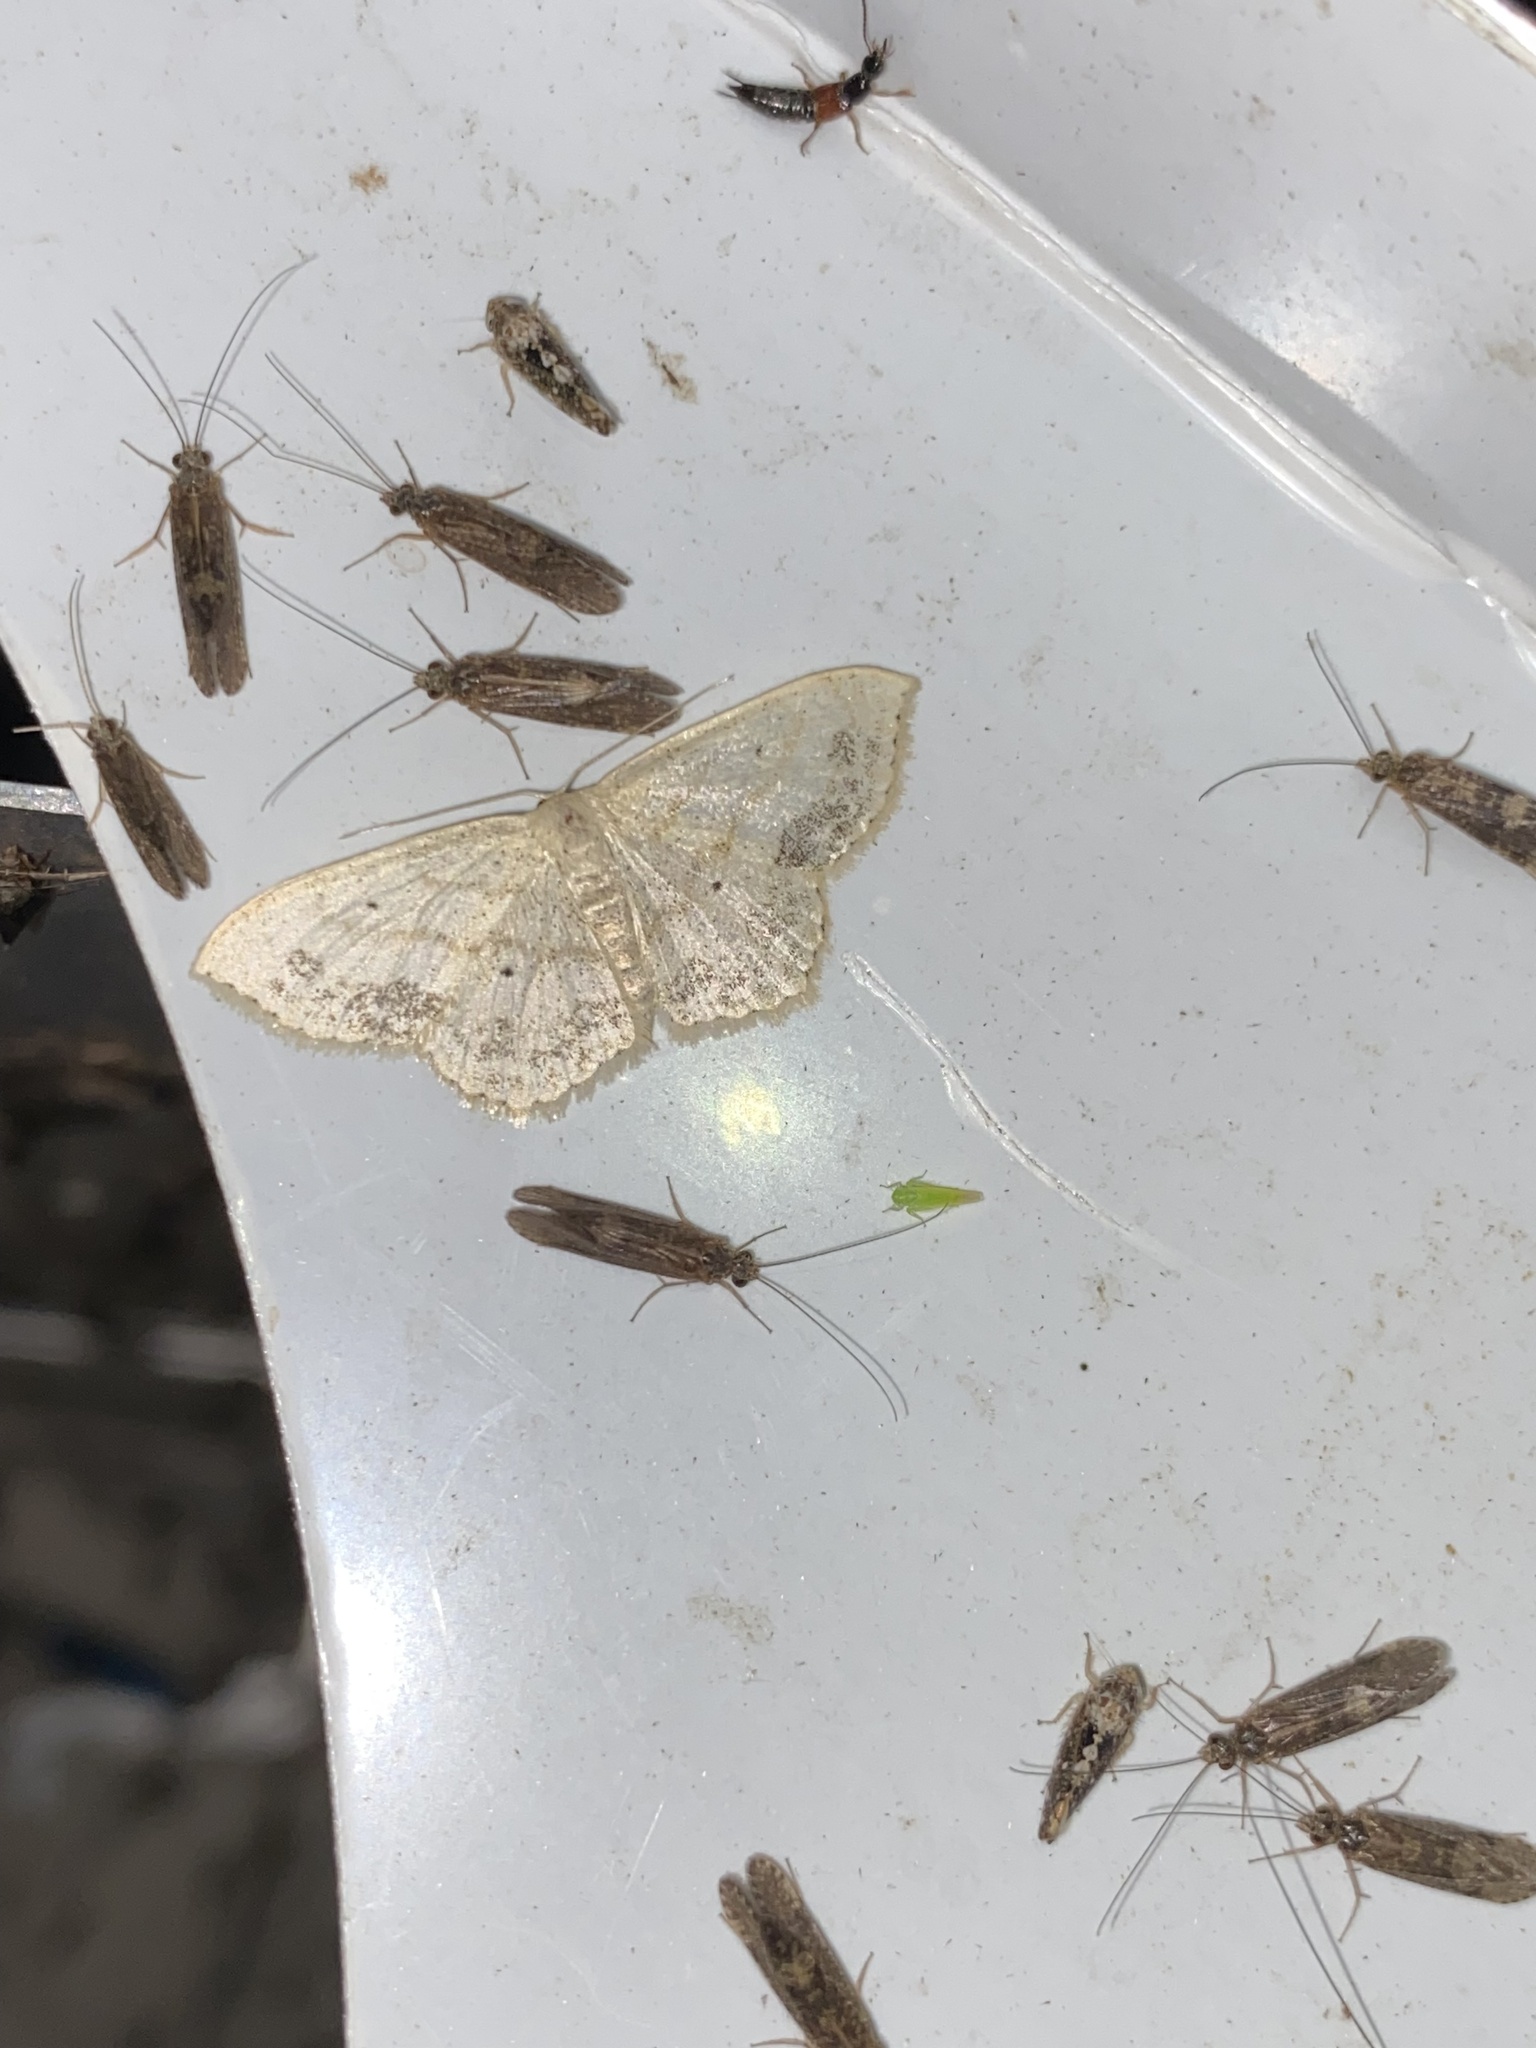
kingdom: Animalia
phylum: Arthropoda
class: Insecta
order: Lepidoptera
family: Geometridae
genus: Scopula
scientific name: Scopula limboundata
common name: Large lace border
